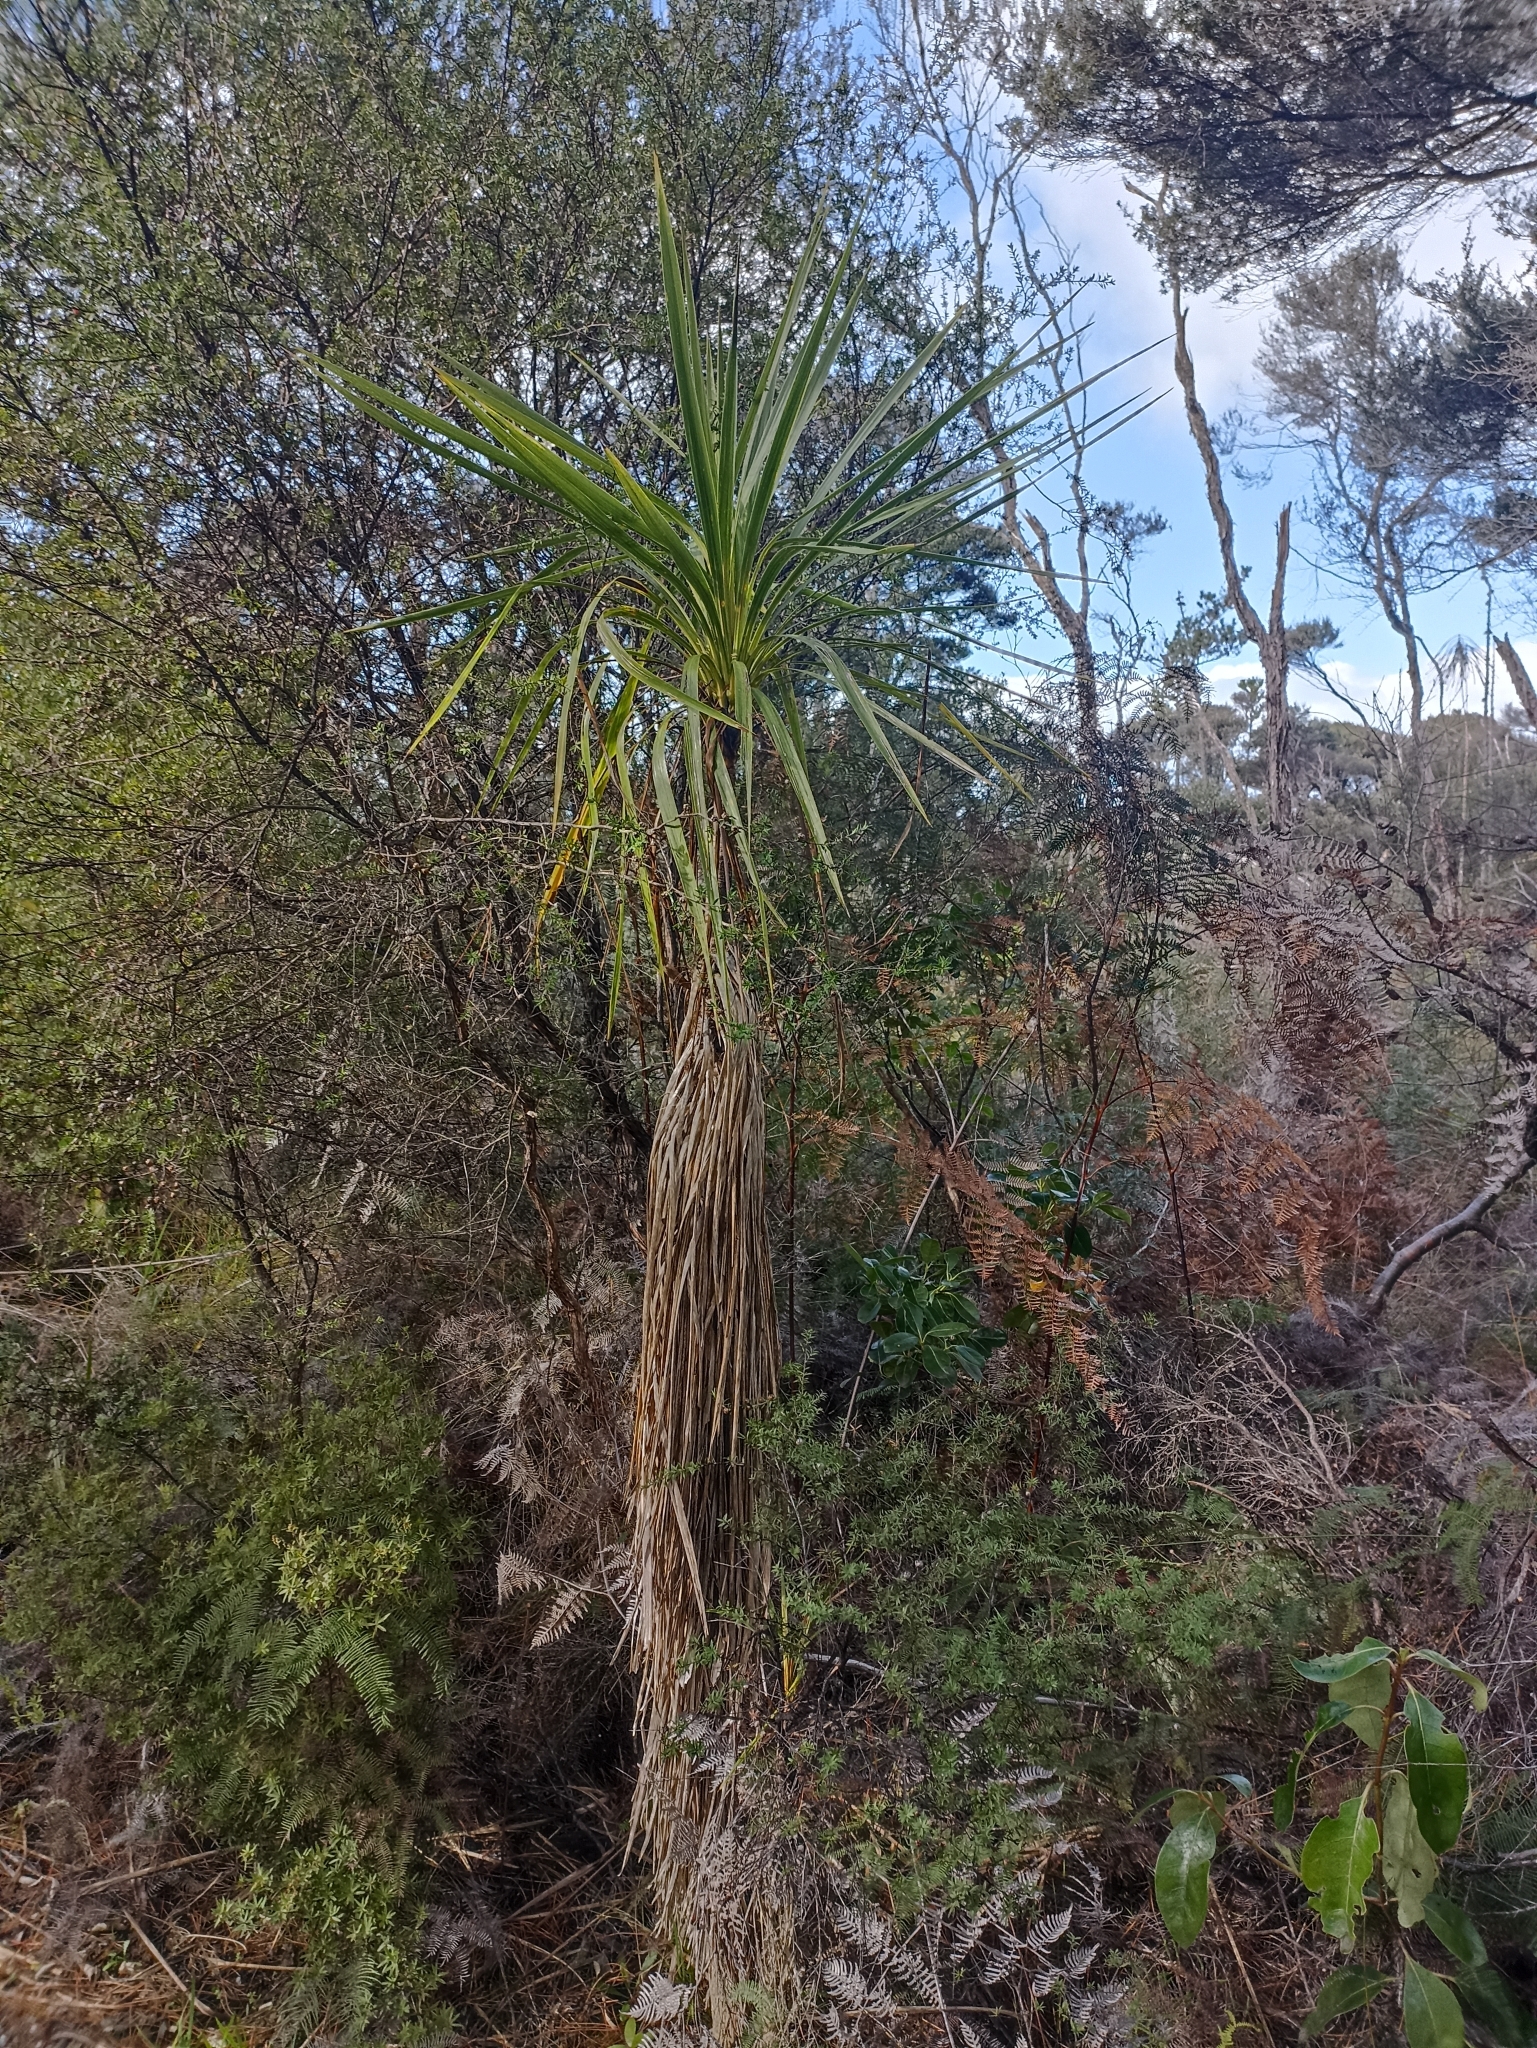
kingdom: Plantae
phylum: Tracheophyta
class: Liliopsida
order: Asparagales
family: Asparagaceae
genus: Cordyline
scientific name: Cordyline australis
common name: Cabbage-palm
